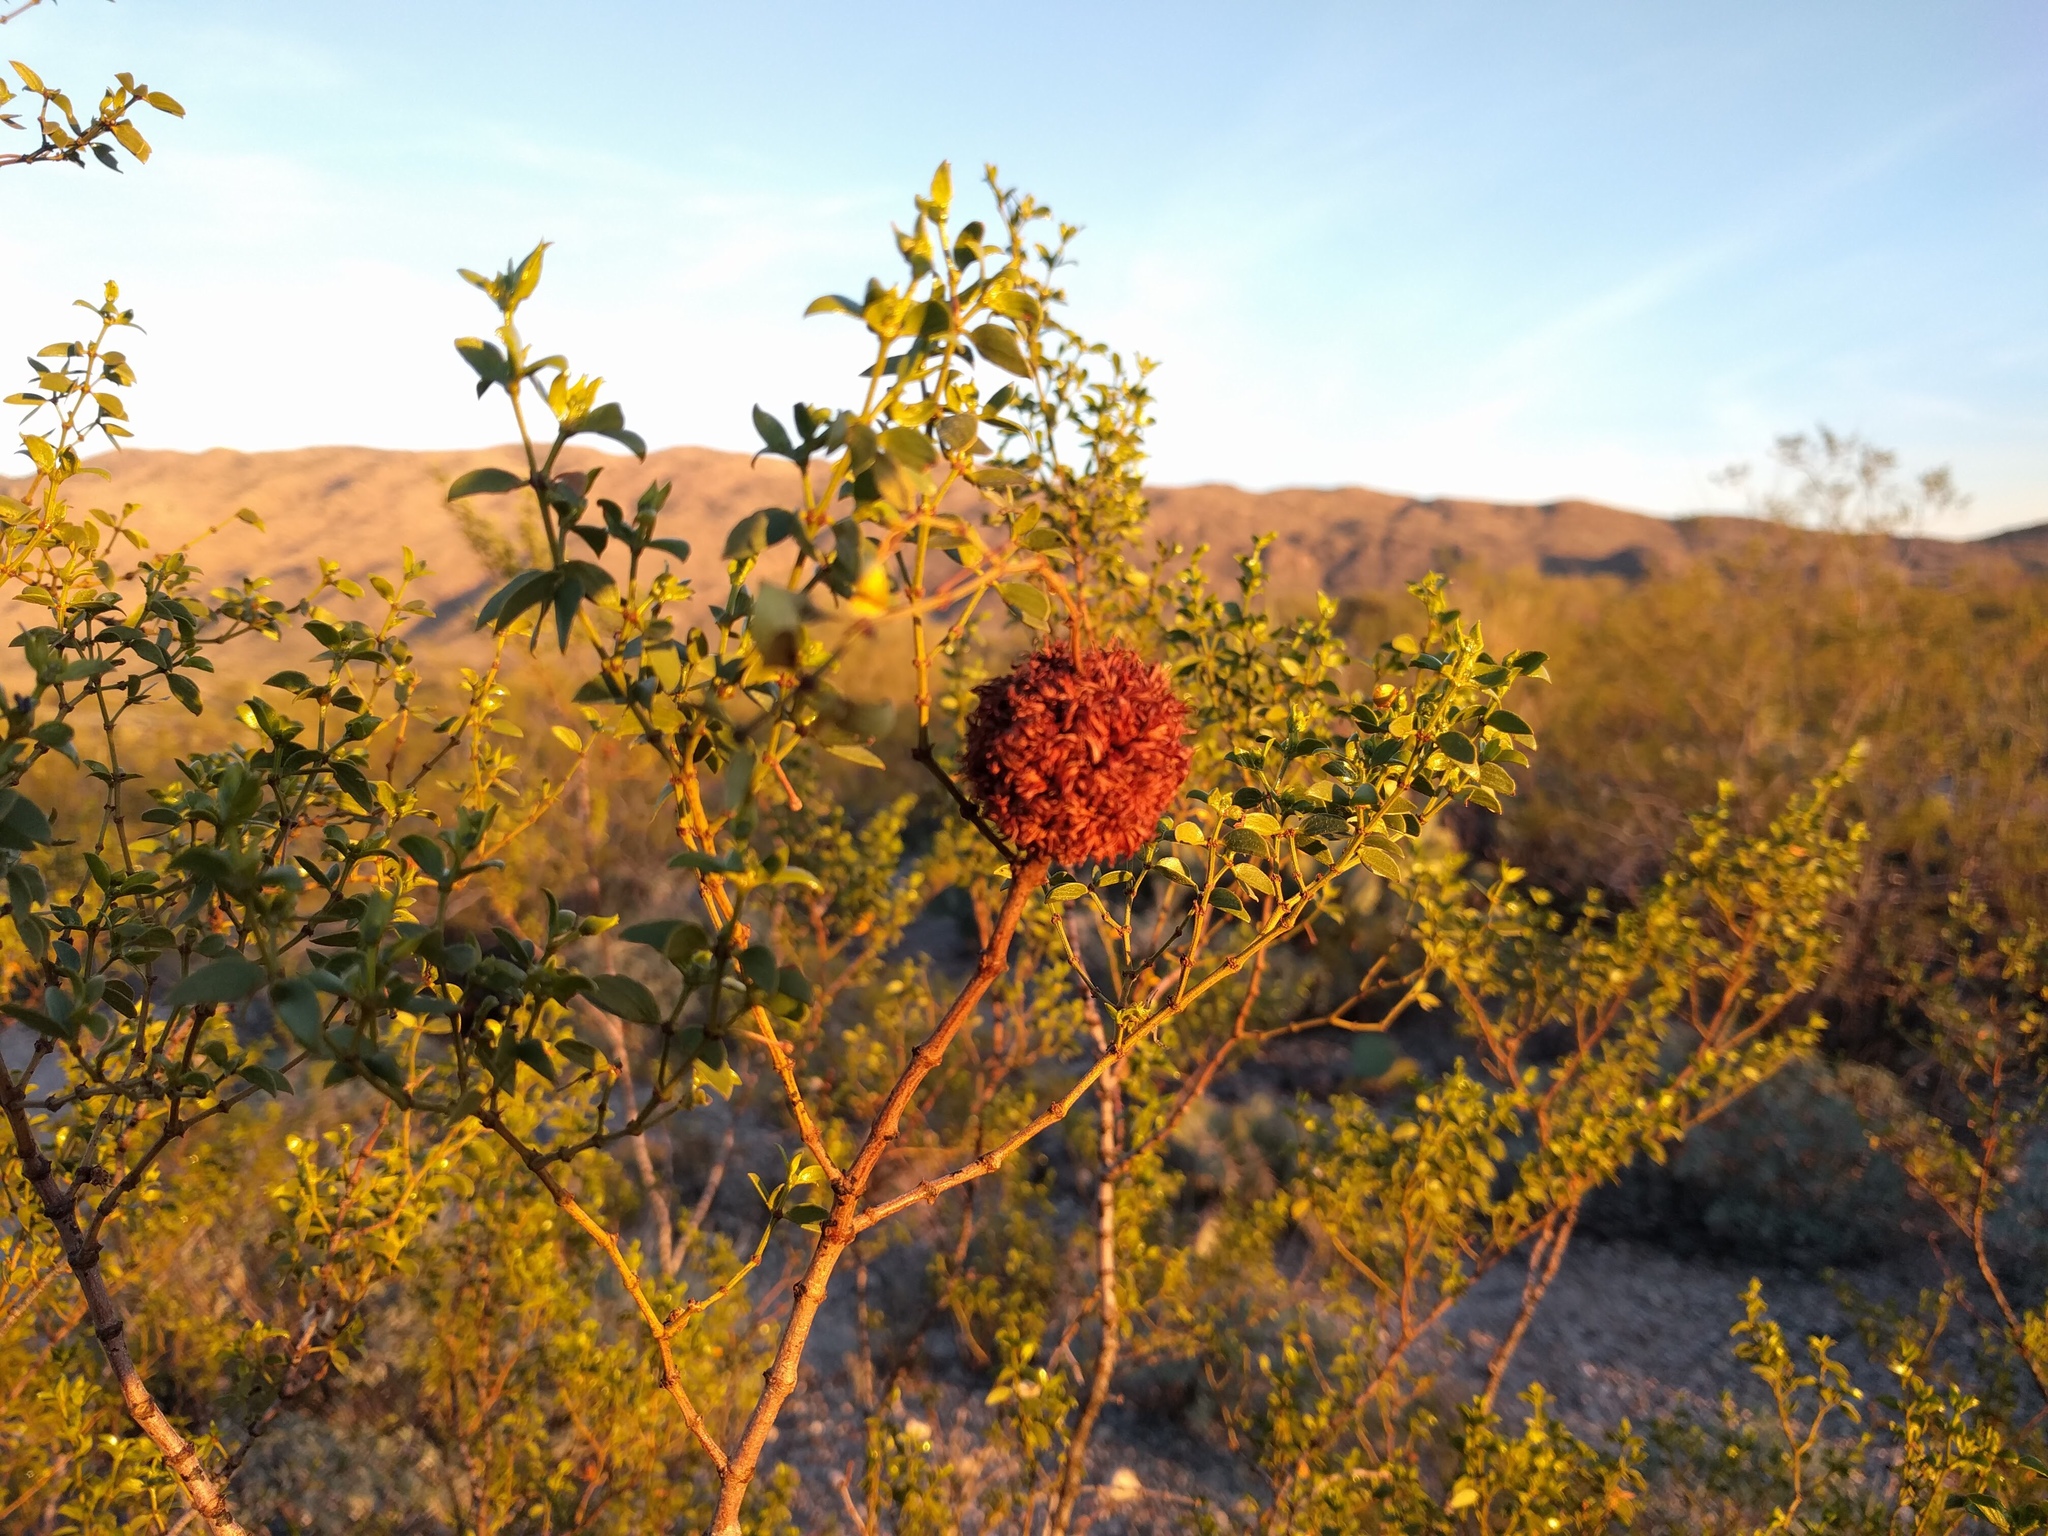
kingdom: Animalia
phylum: Arthropoda
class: Insecta
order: Diptera
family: Cecidomyiidae
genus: Asphondylia
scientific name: Asphondylia auripila
